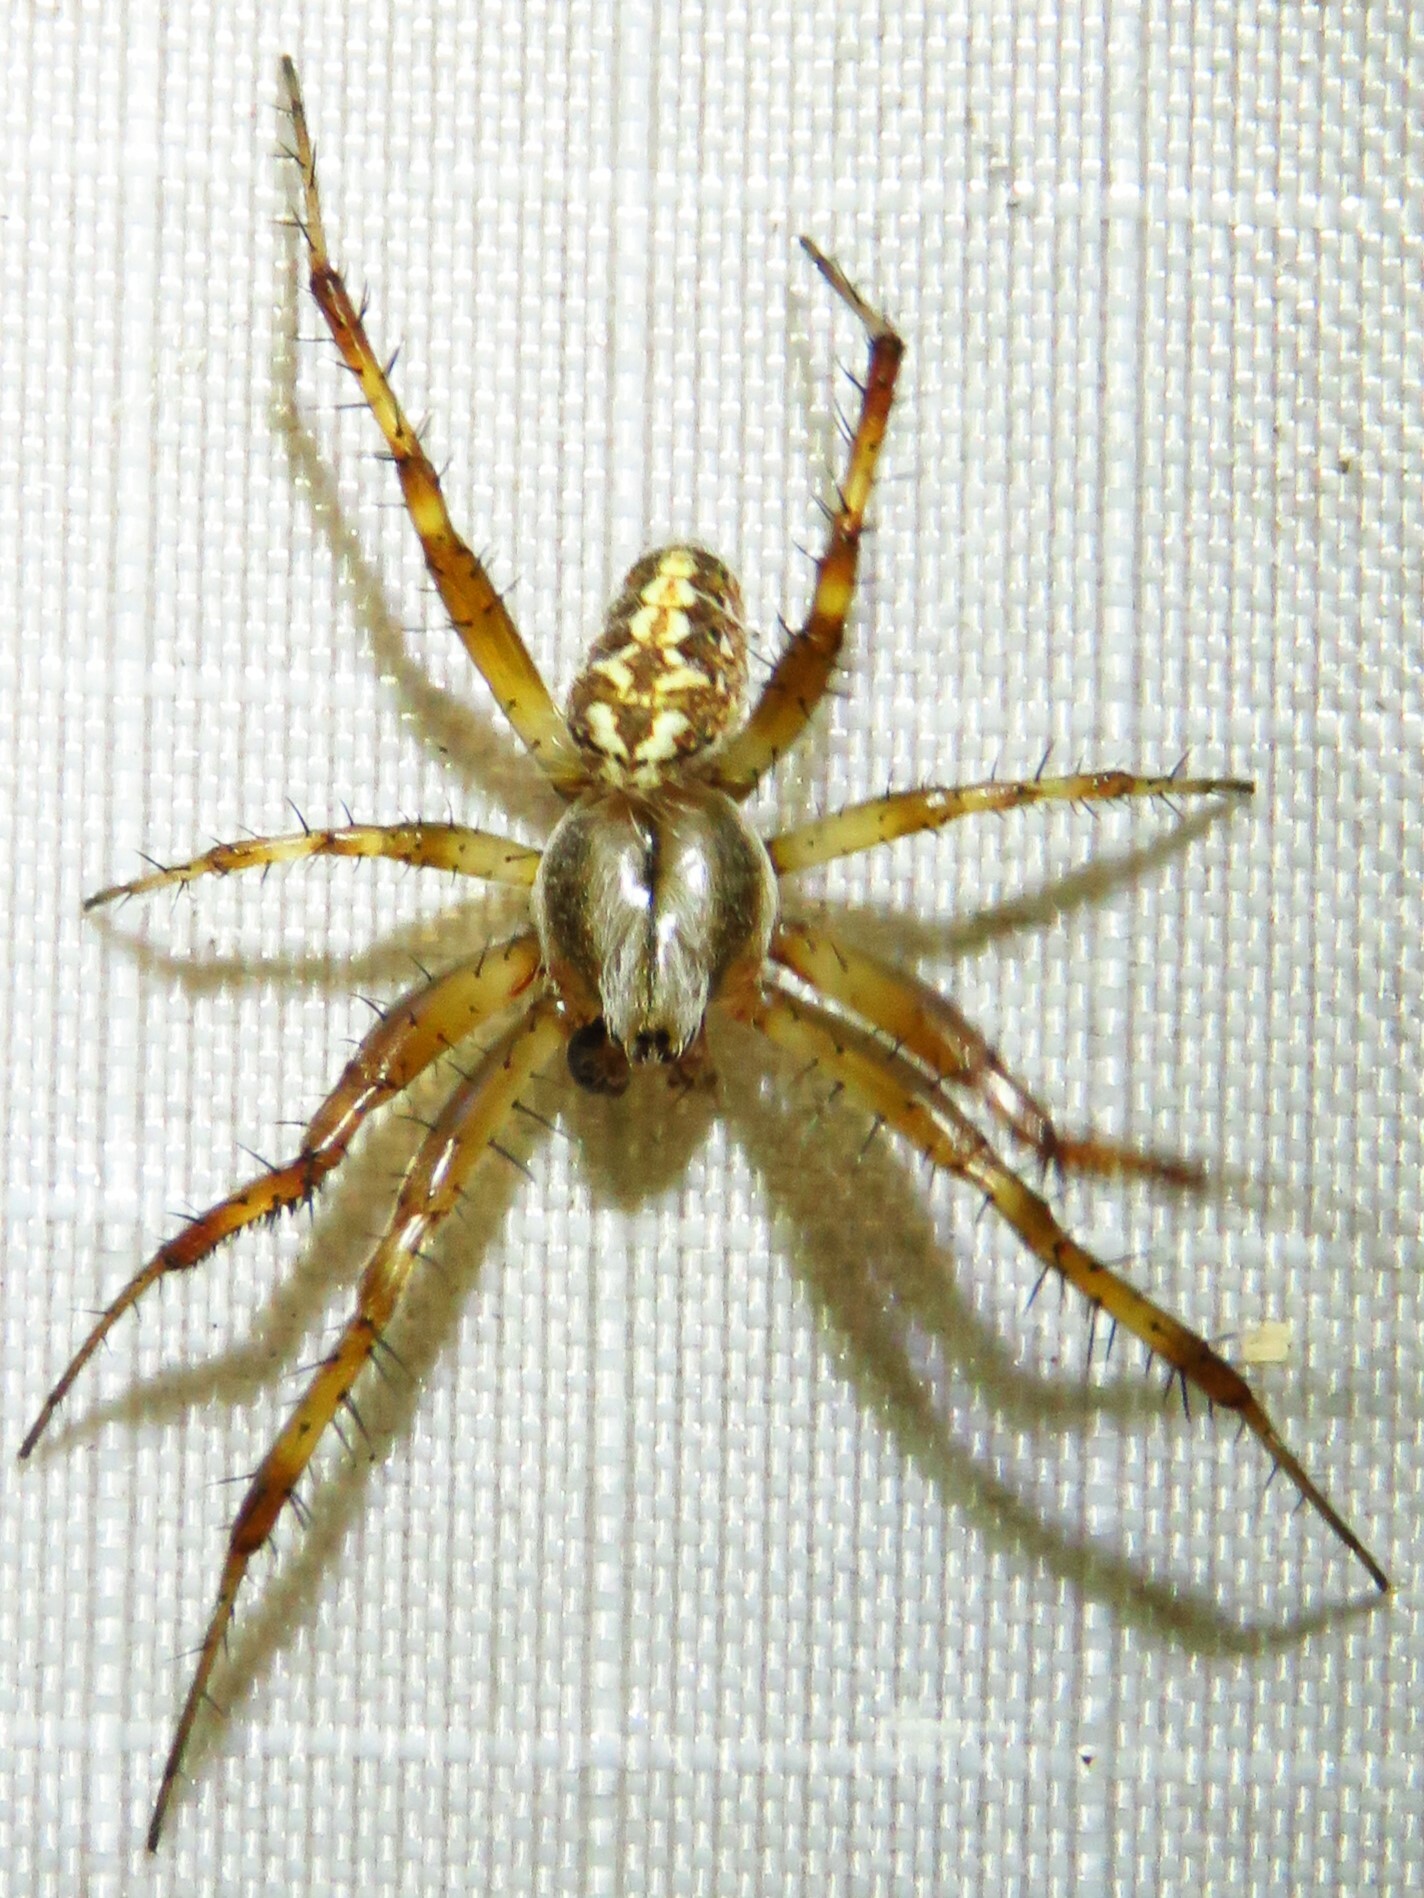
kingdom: Animalia
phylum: Arthropoda
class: Arachnida
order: Araneae
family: Araneidae
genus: Neoscona
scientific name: Neoscona oaxacensis
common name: Orb weavers
